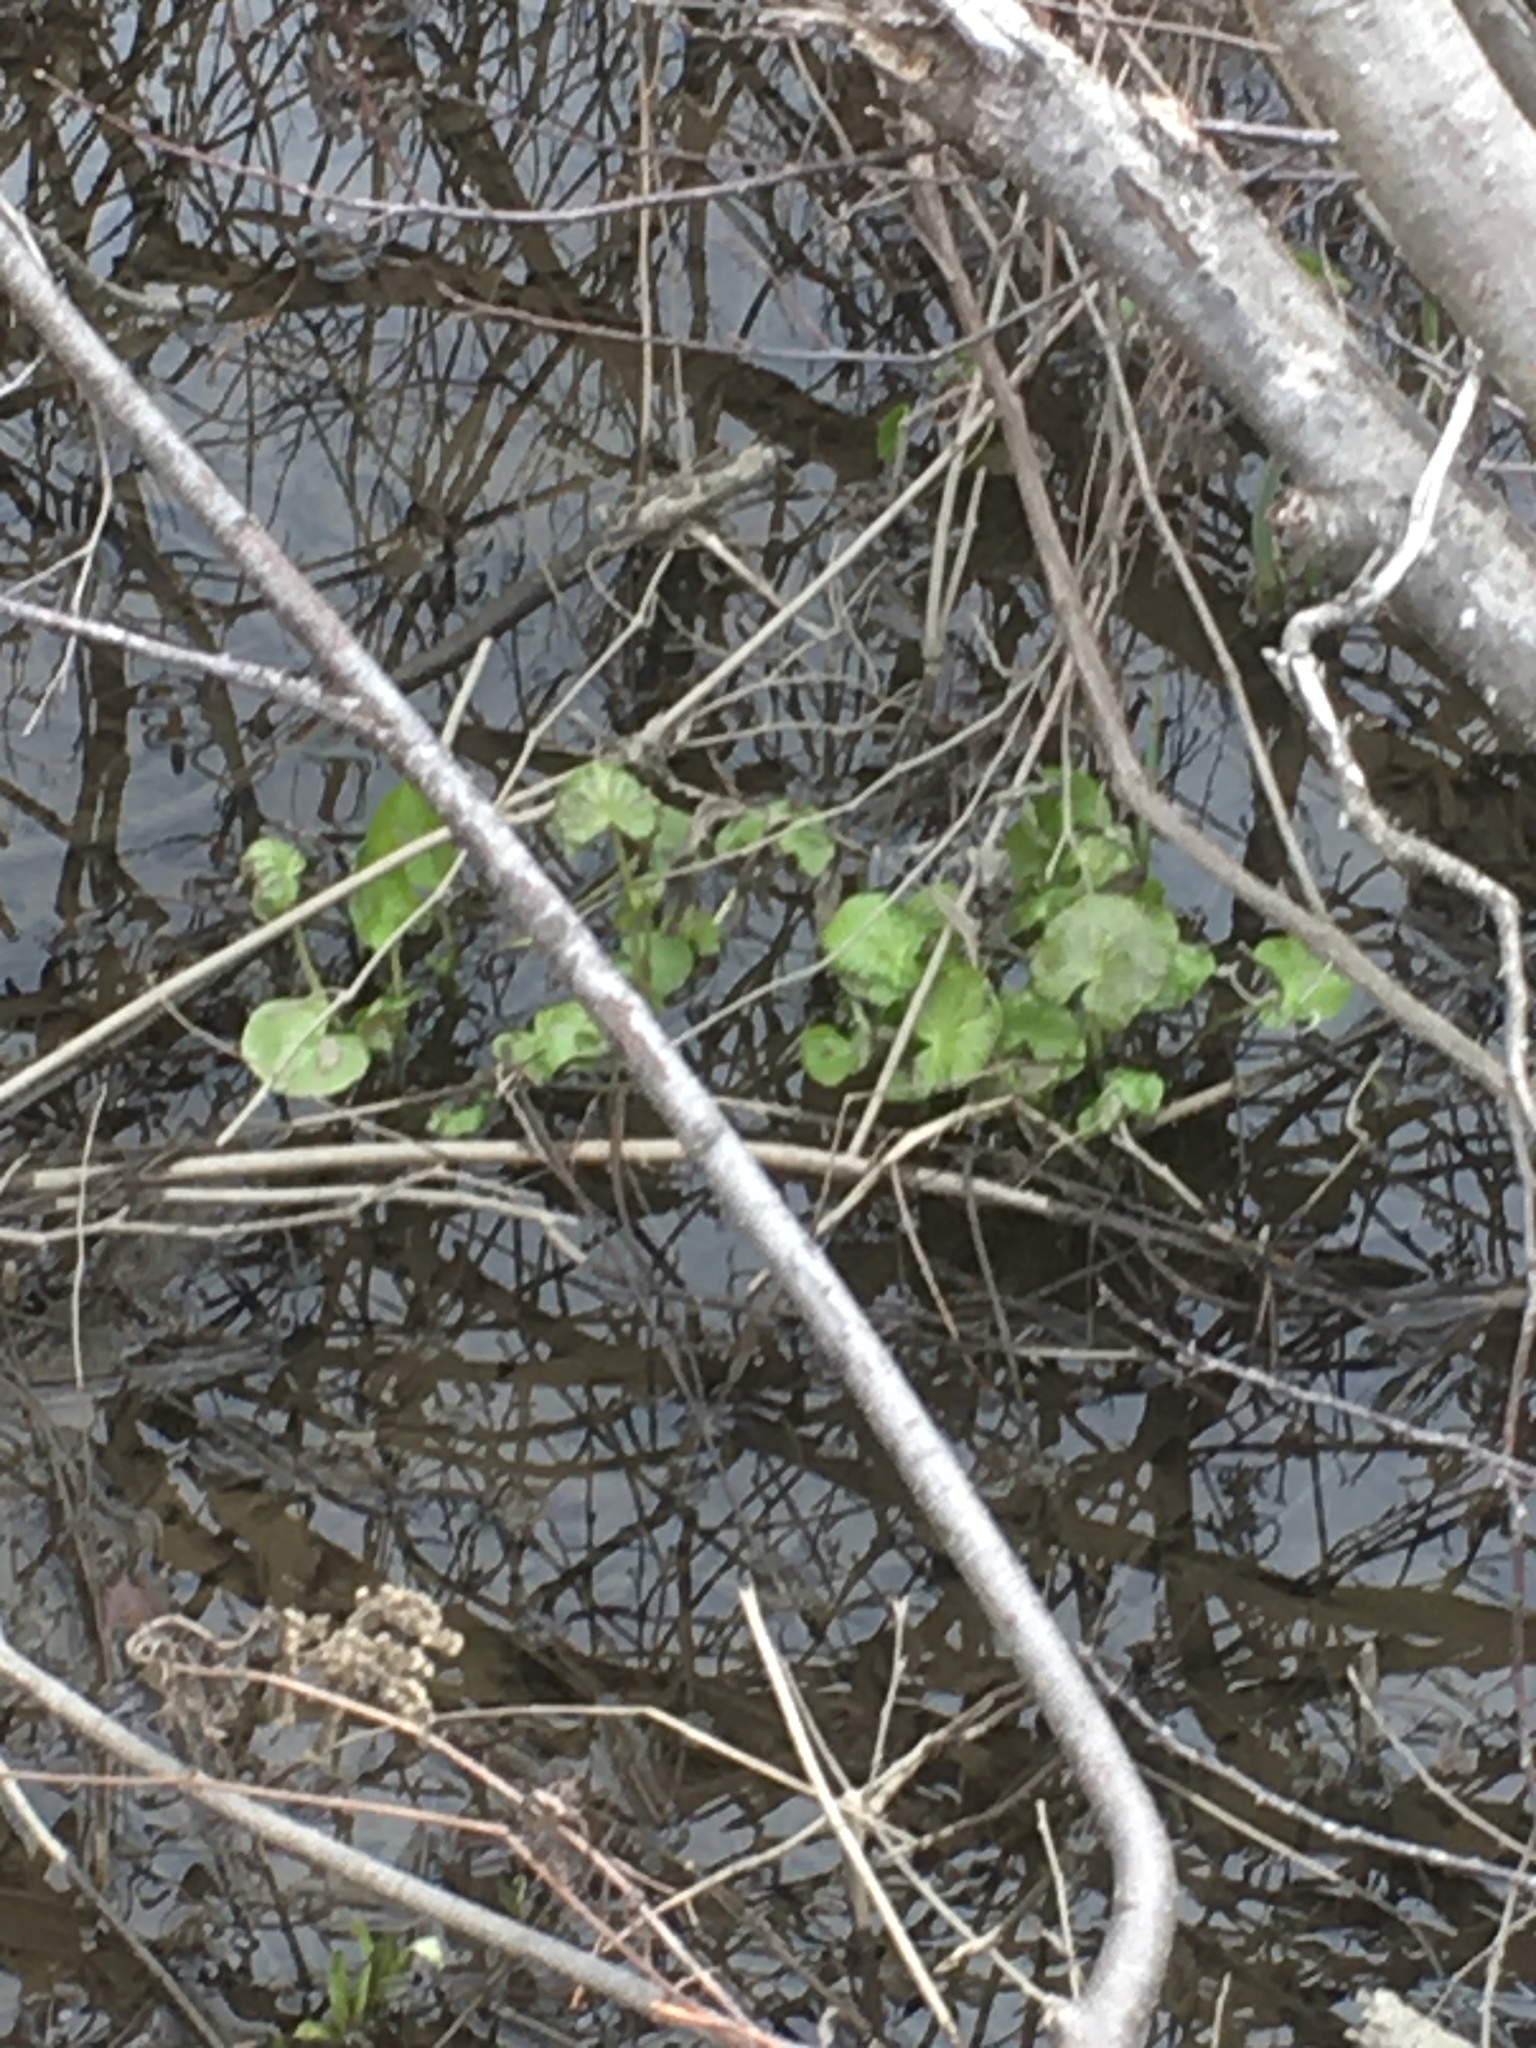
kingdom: Plantae
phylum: Tracheophyta
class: Magnoliopsida
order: Ranunculales
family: Ranunculaceae
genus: Caltha
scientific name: Caltha palustris
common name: Marsh marigold
